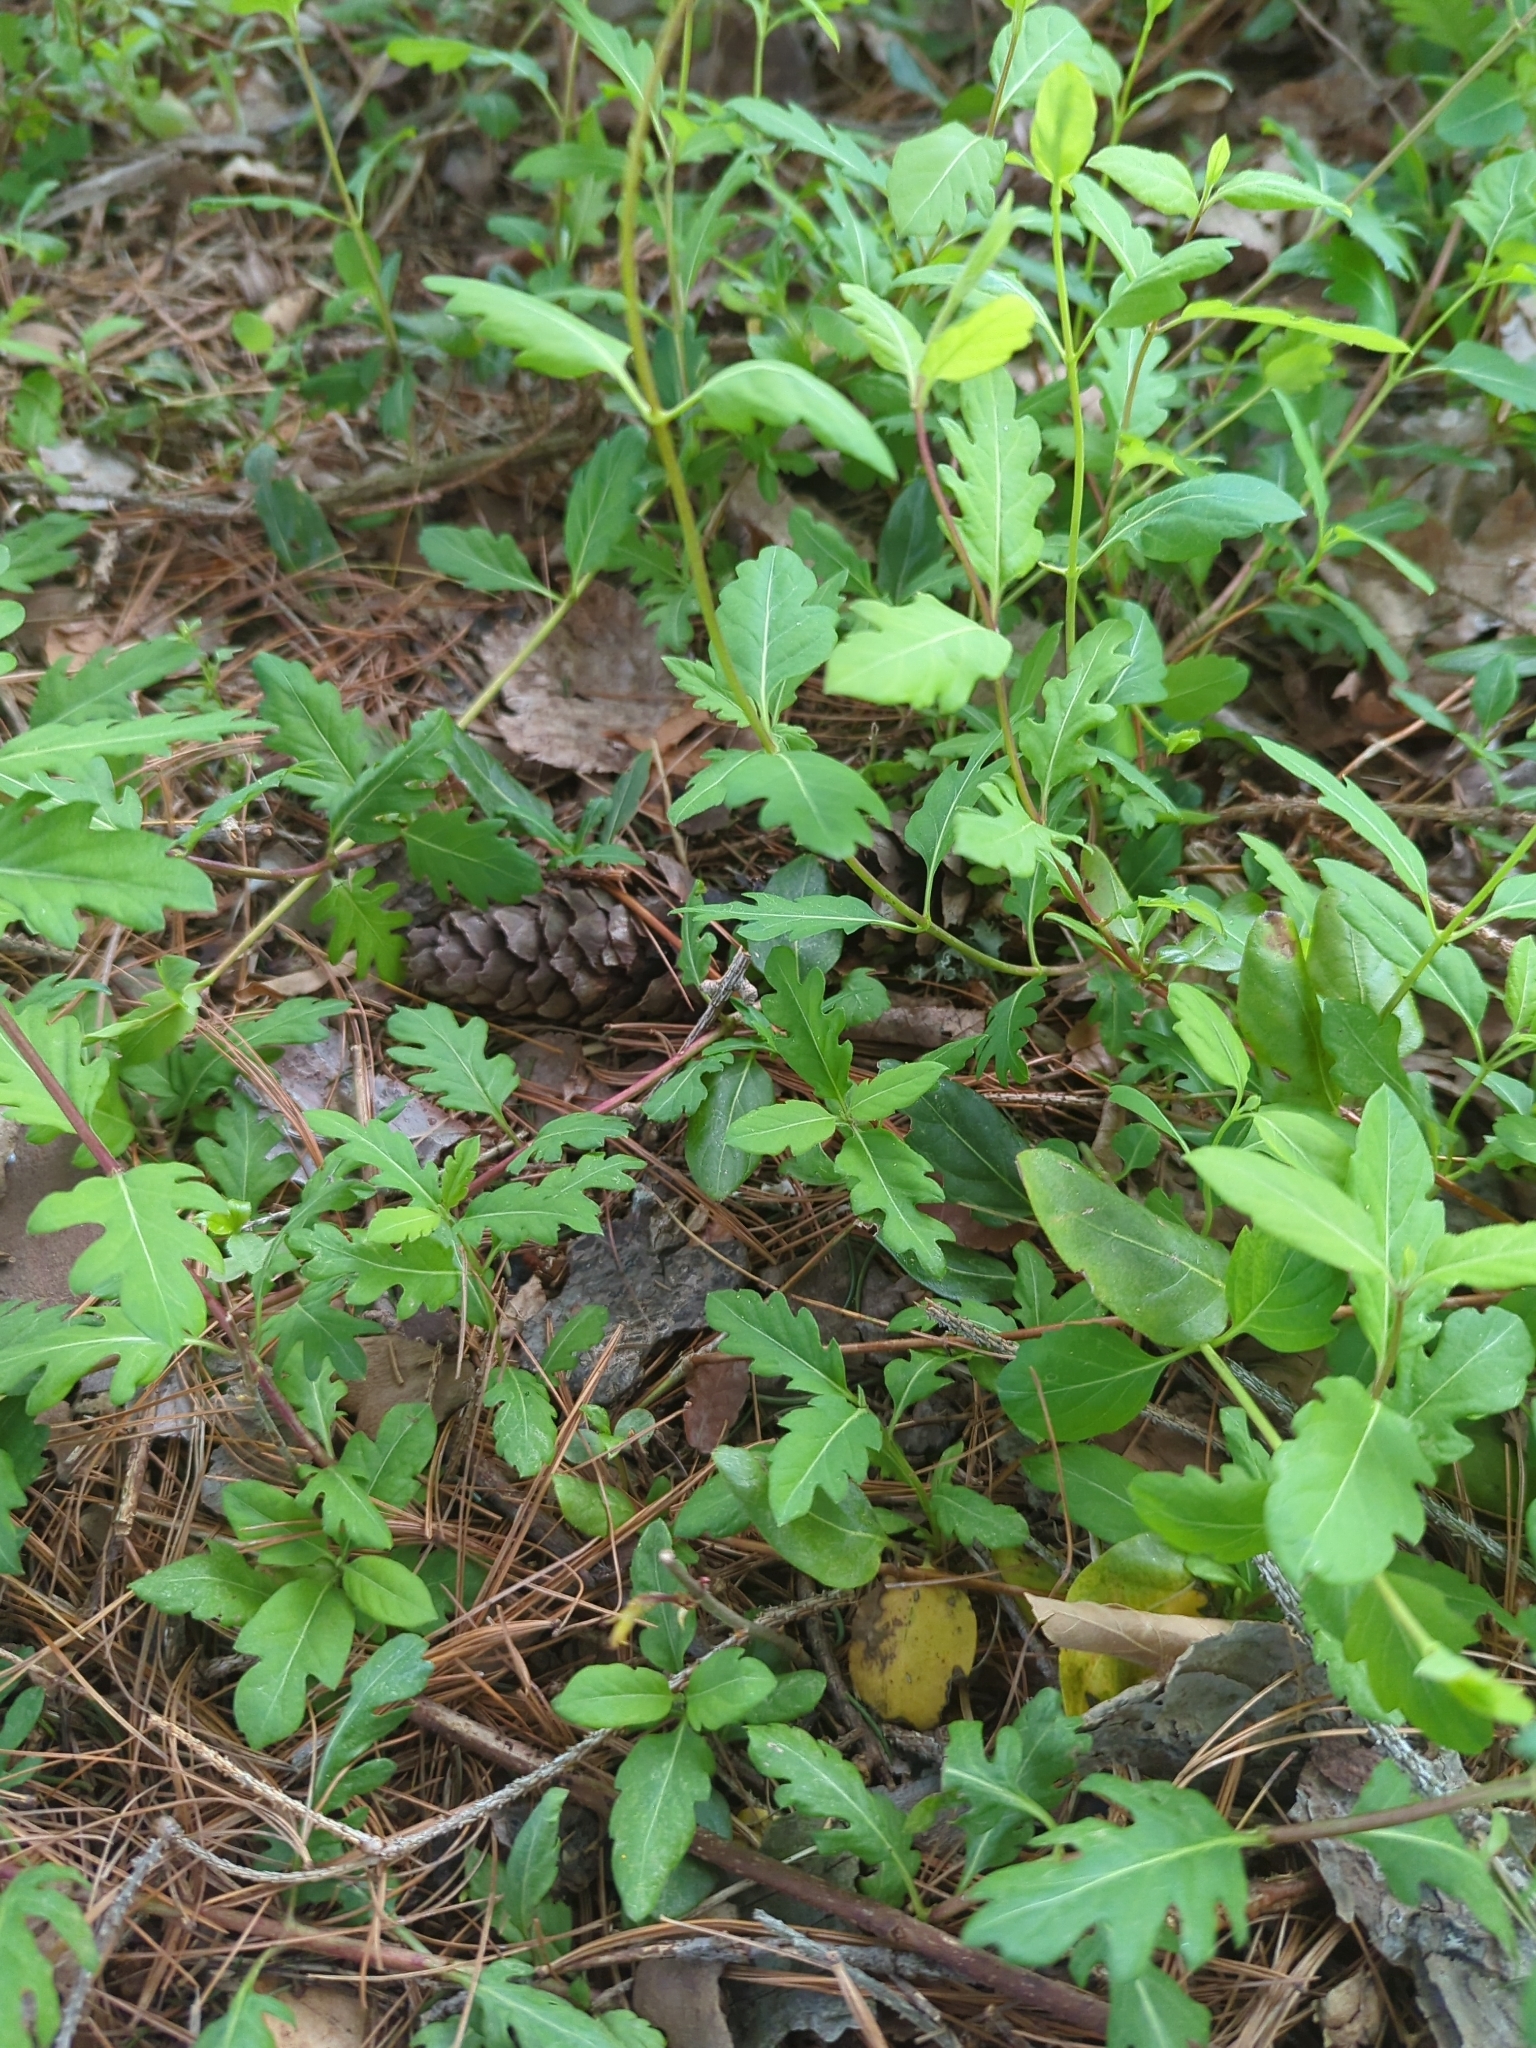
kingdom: Plantae
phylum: Tracheophyta
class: Magnoliopsida
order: Dipsacales
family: Caprifoliaceae
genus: Lonicera
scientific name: Lonicera japonica
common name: Japanese honeysuckle
